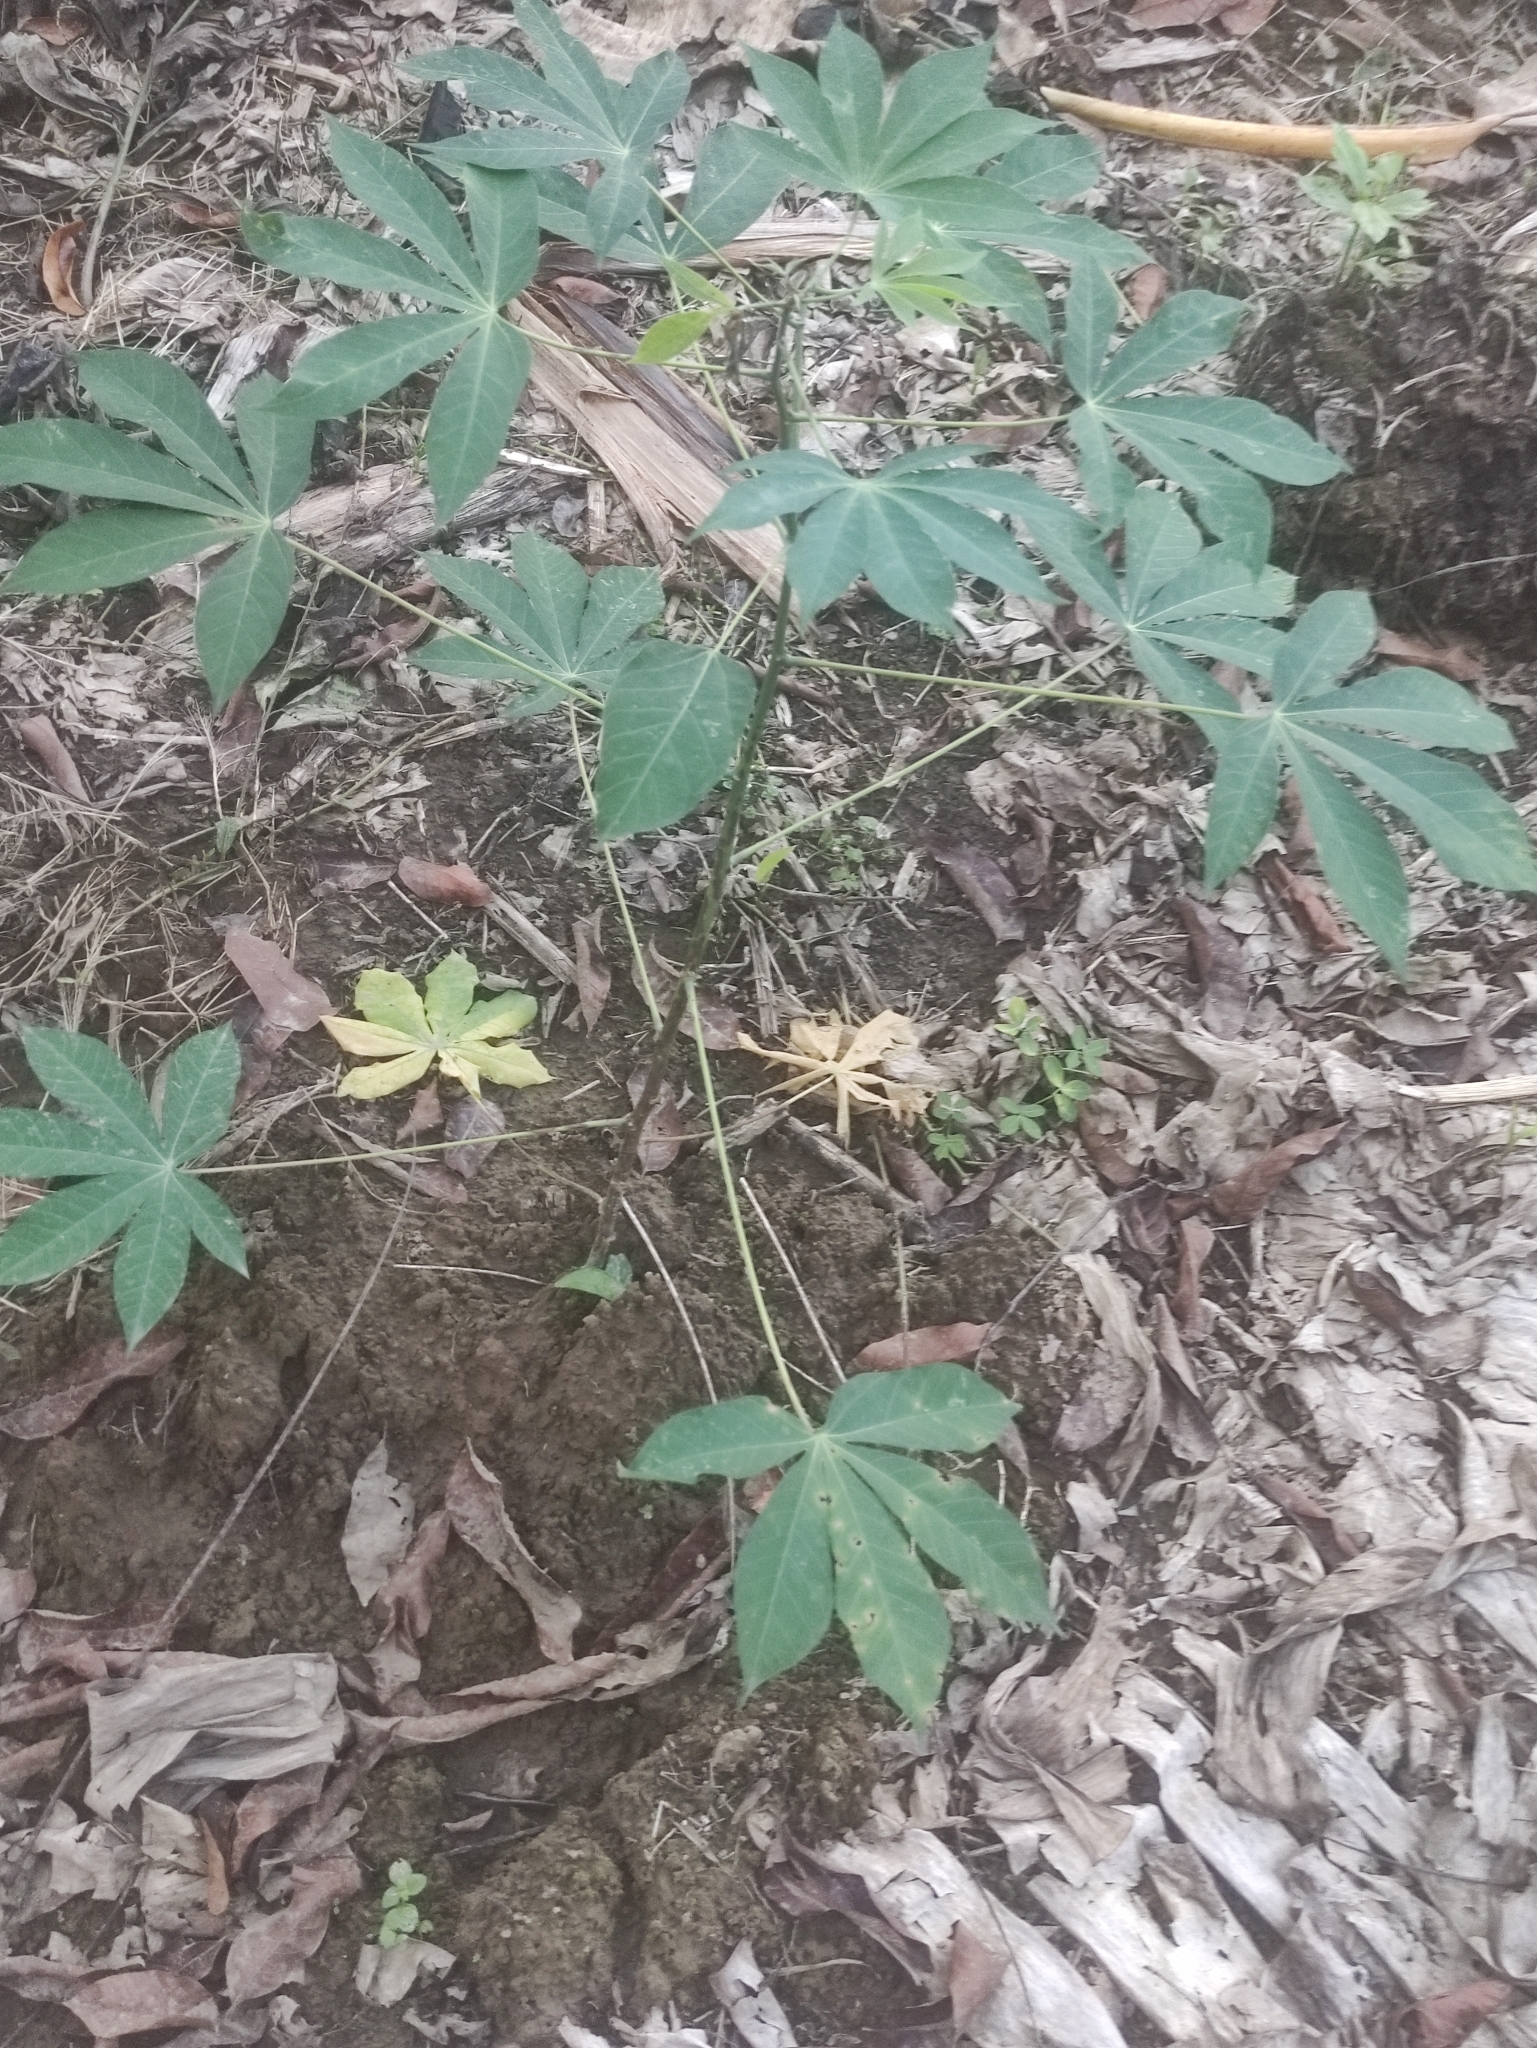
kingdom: Plantae
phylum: Tracheophyta
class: Magnoliopsida
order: Malpighiales
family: Euphorbiaceae
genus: Manihot
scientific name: Manihot esculenta
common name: Cassava
